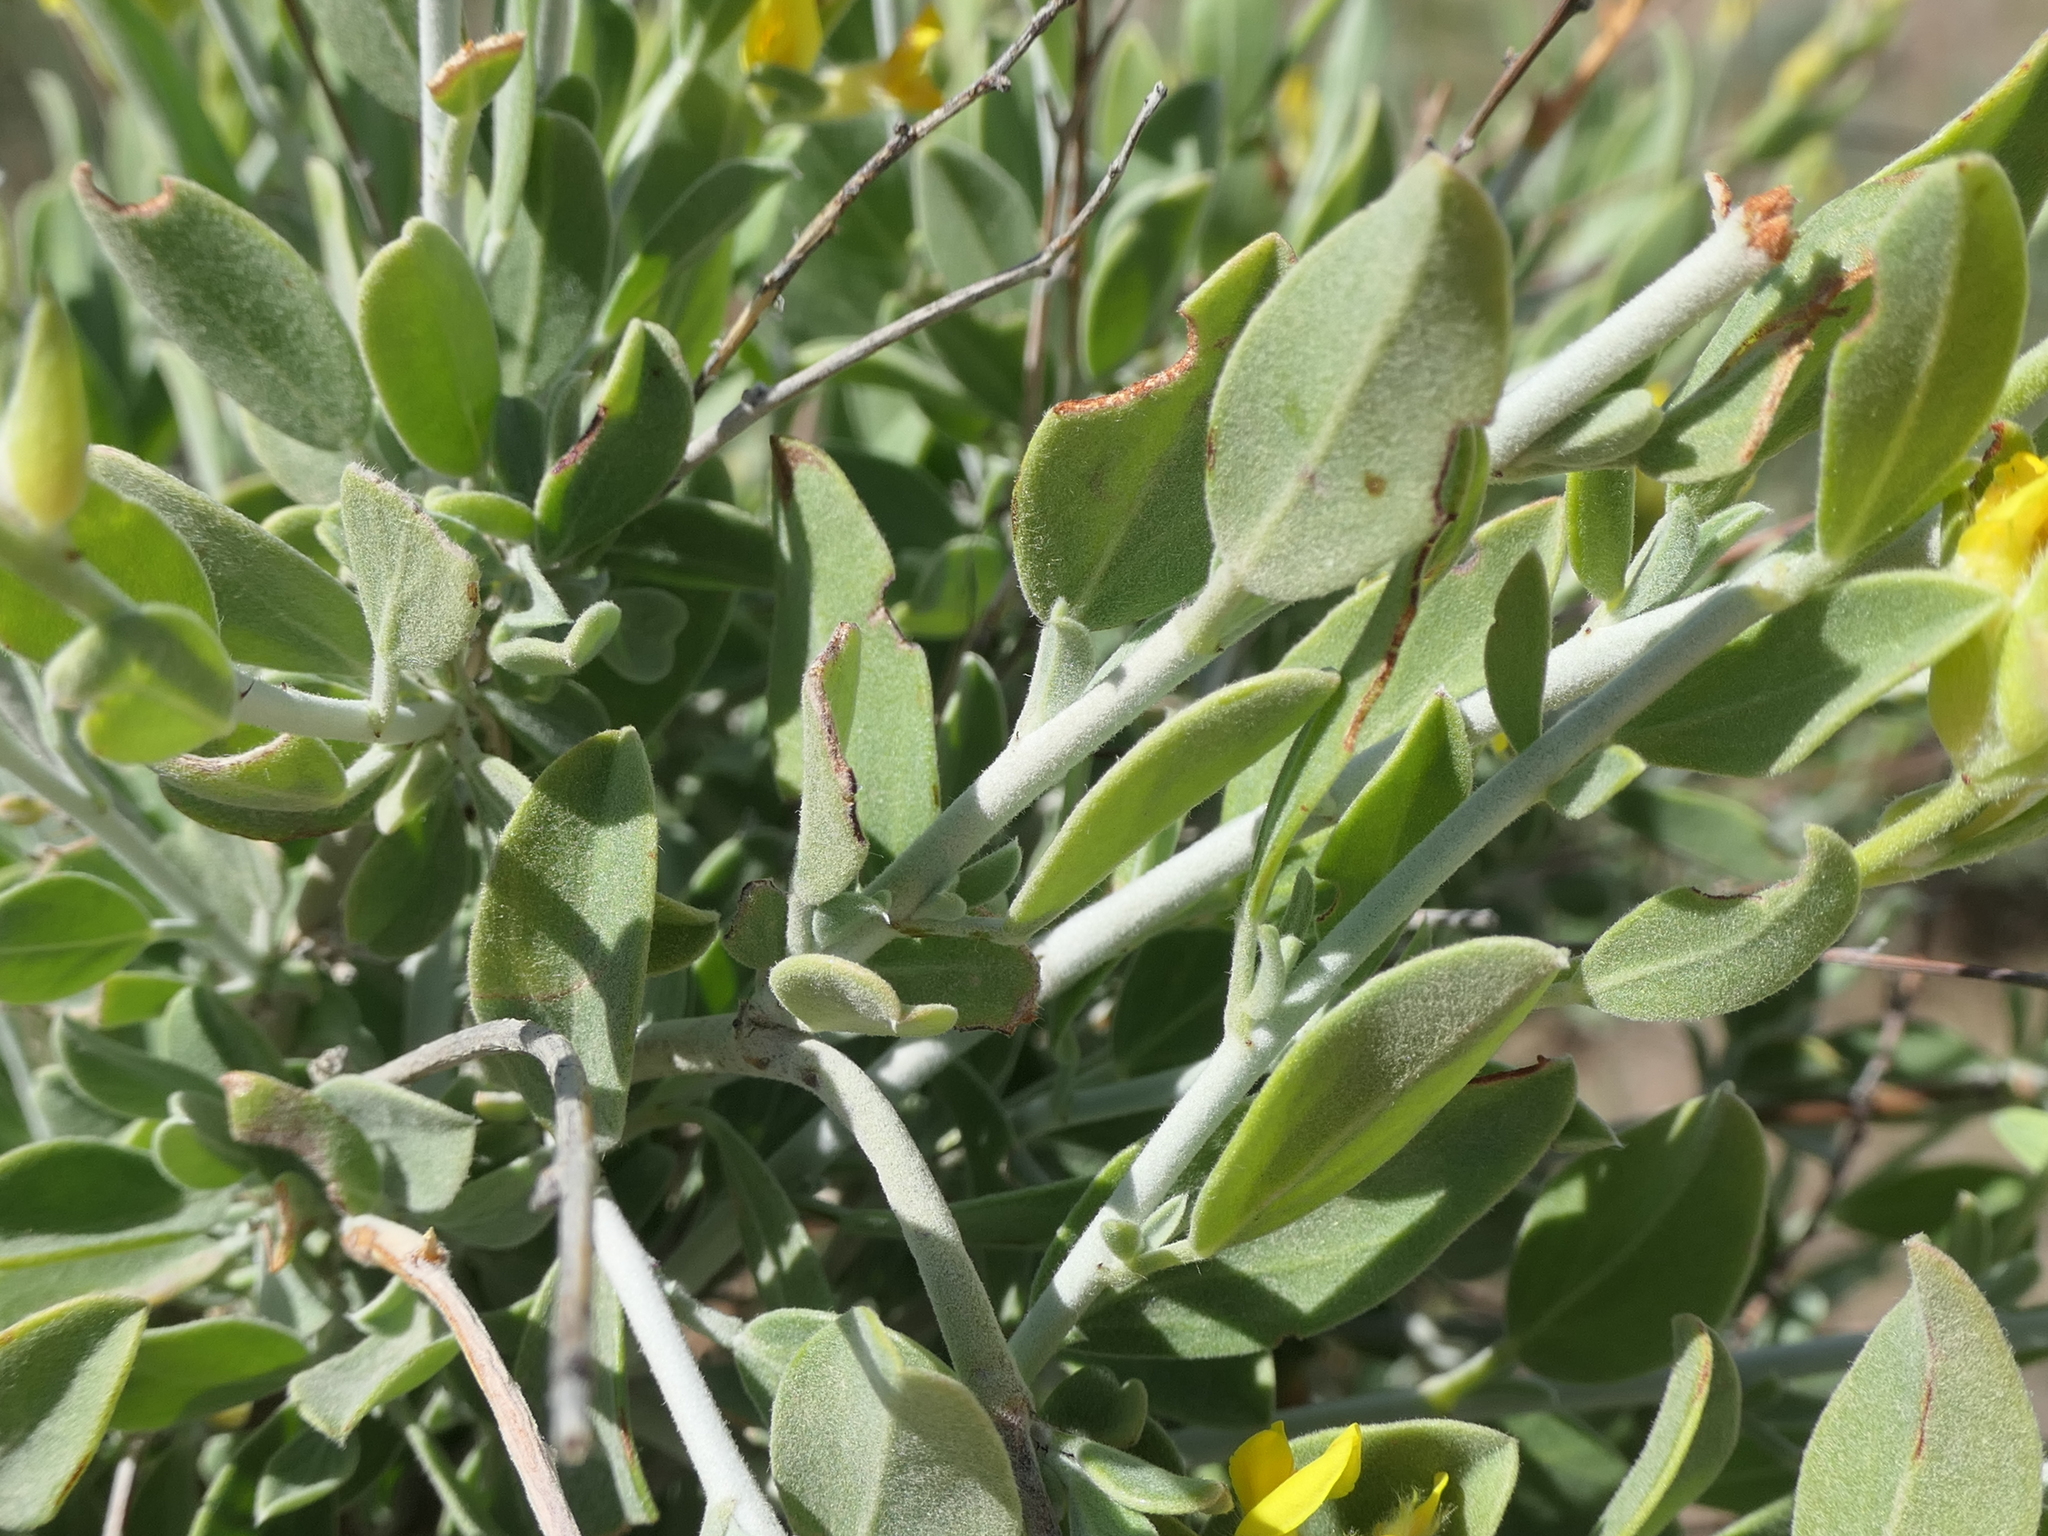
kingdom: Plantae
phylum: Tracheophyta
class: Magnoliopsida
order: Fabales
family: Fabaceae
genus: Anthyllis
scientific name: Anthyllis cytisoides
